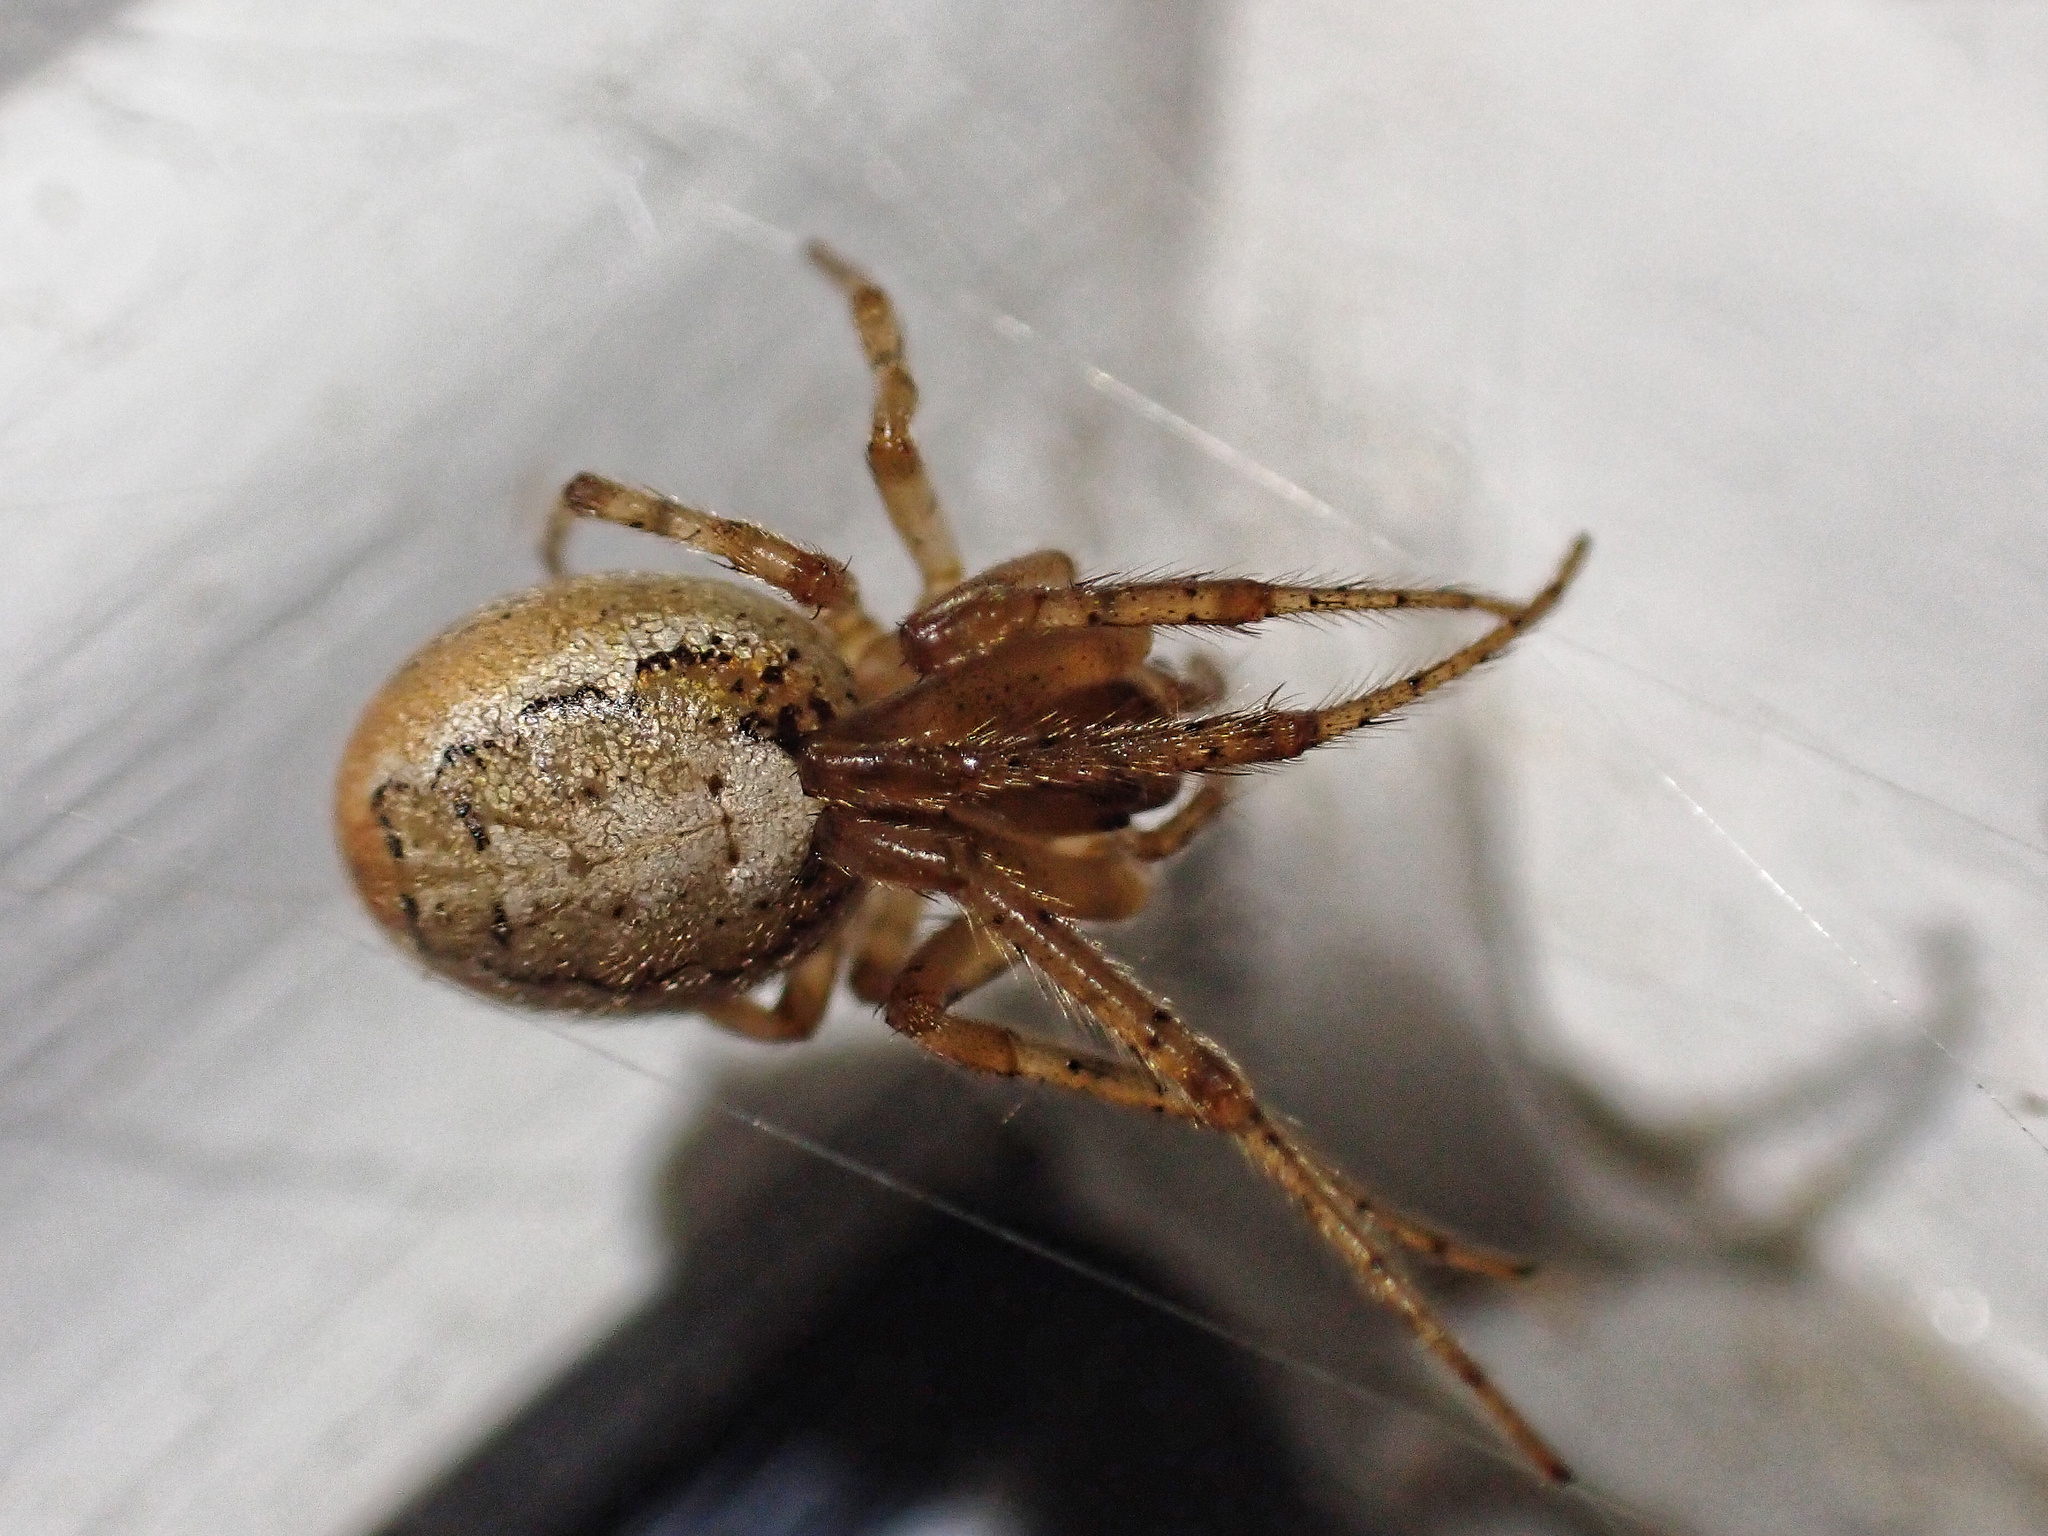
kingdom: Animalia
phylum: Arthropoda
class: Arachnida
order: Araneae
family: Araneidae
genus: Zygiella
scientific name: Zygiella x-notata
